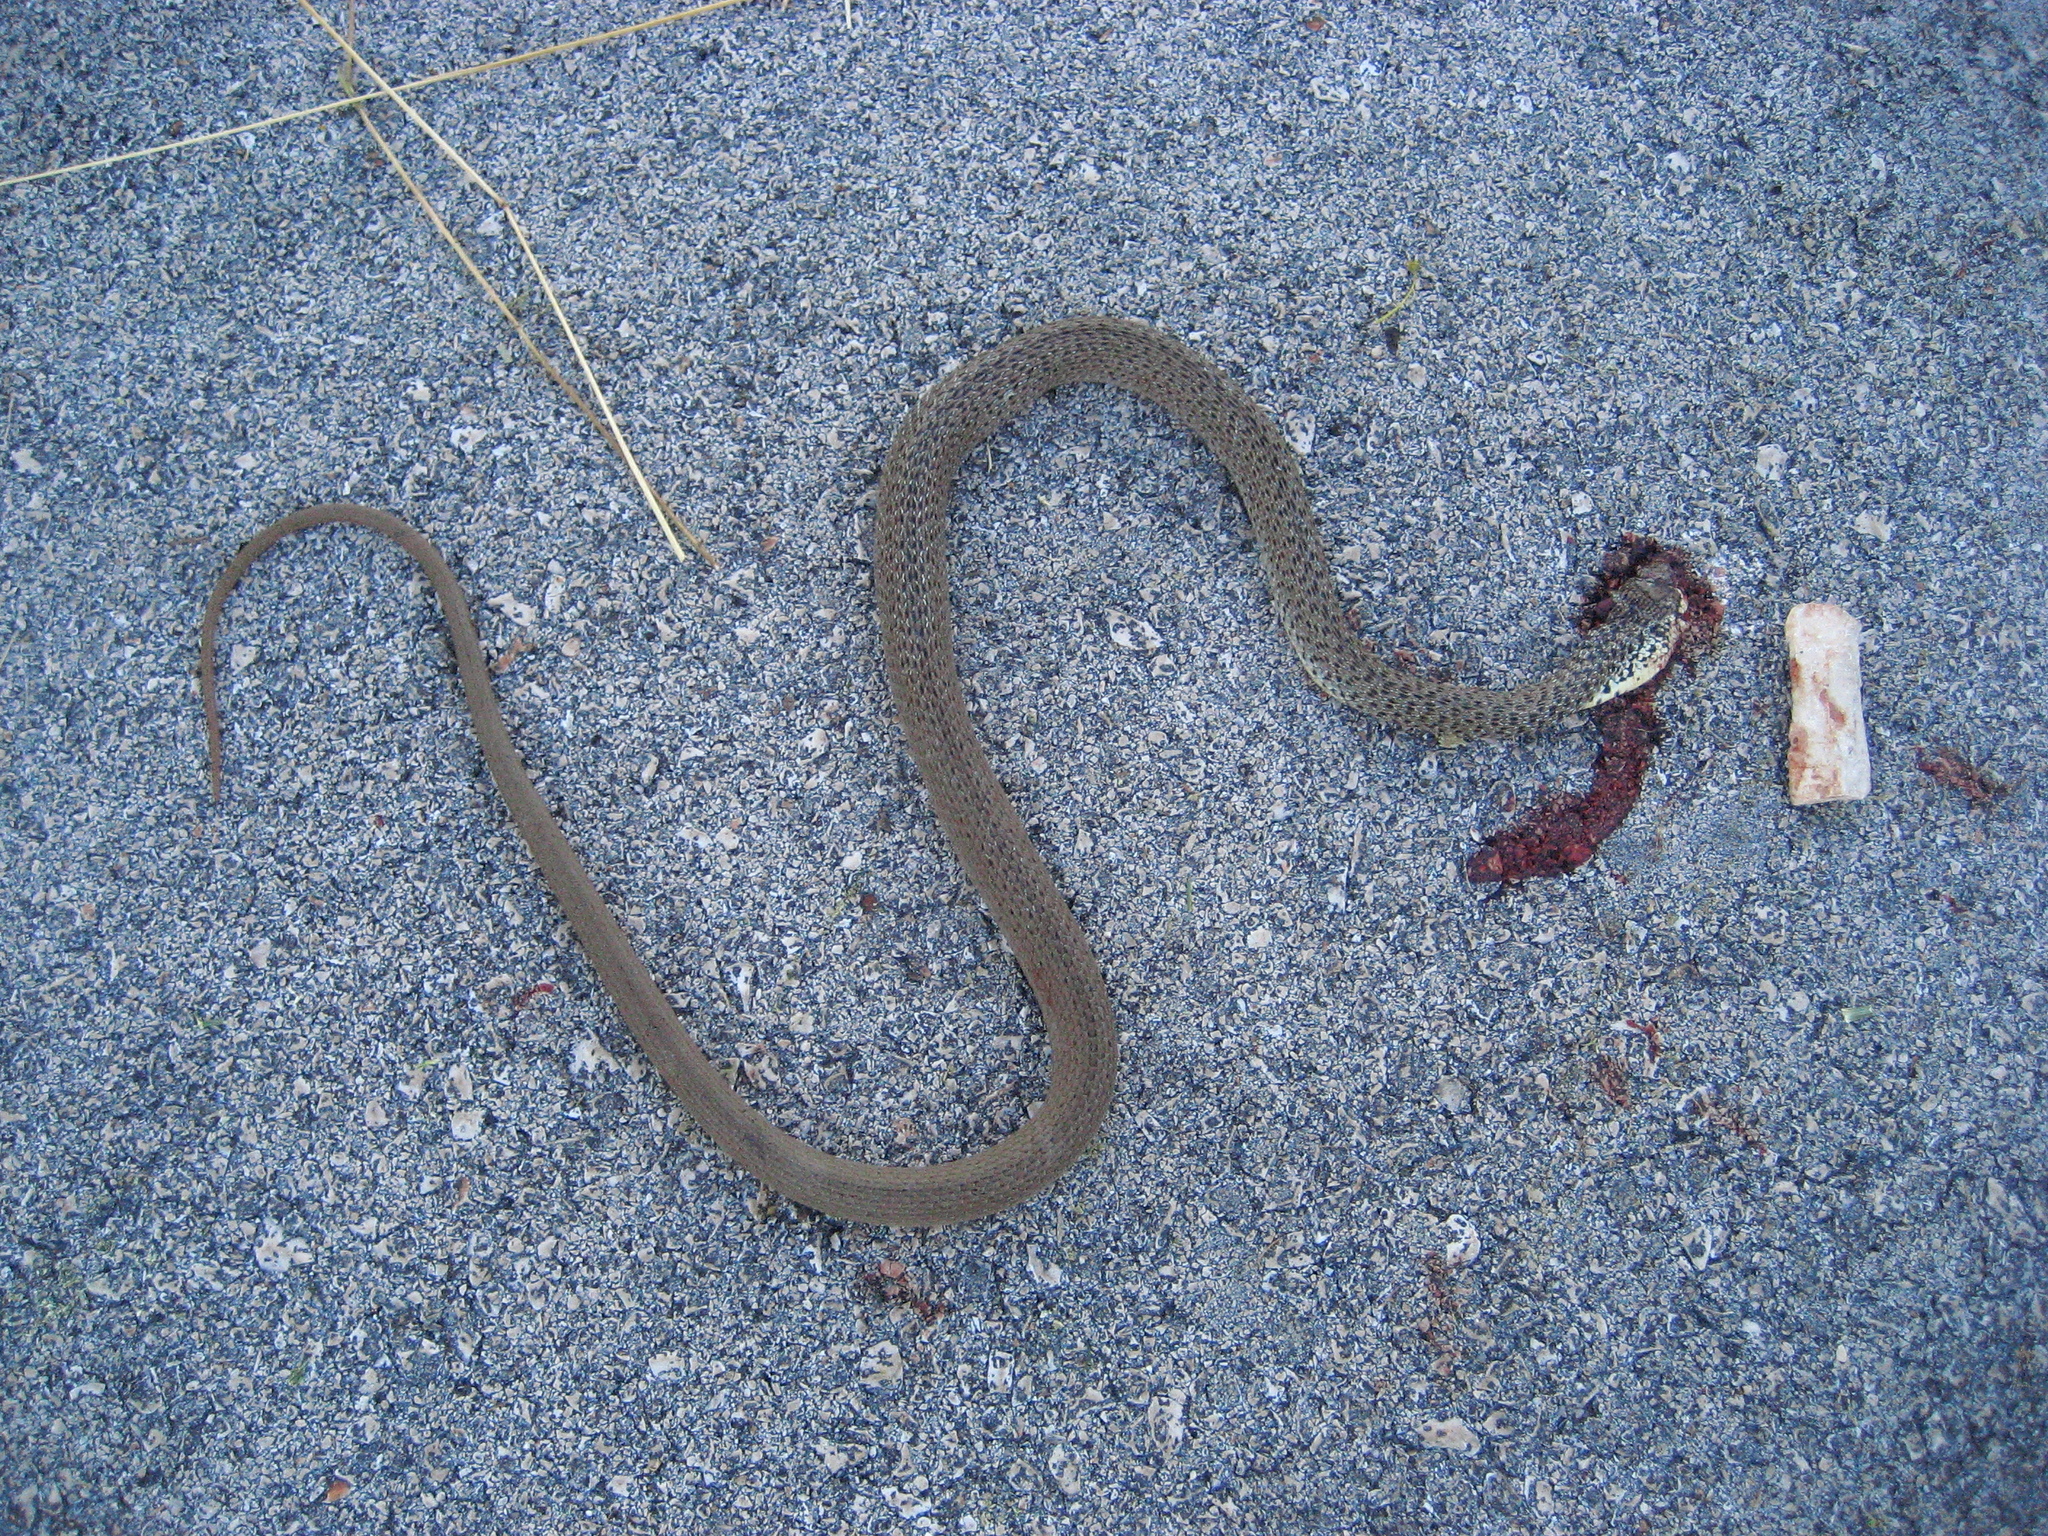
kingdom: Animalia
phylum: Chordata
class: Squamata
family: Colubridae
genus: Hierophis
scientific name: Hierophis gemonensis
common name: Balkan whip snake
